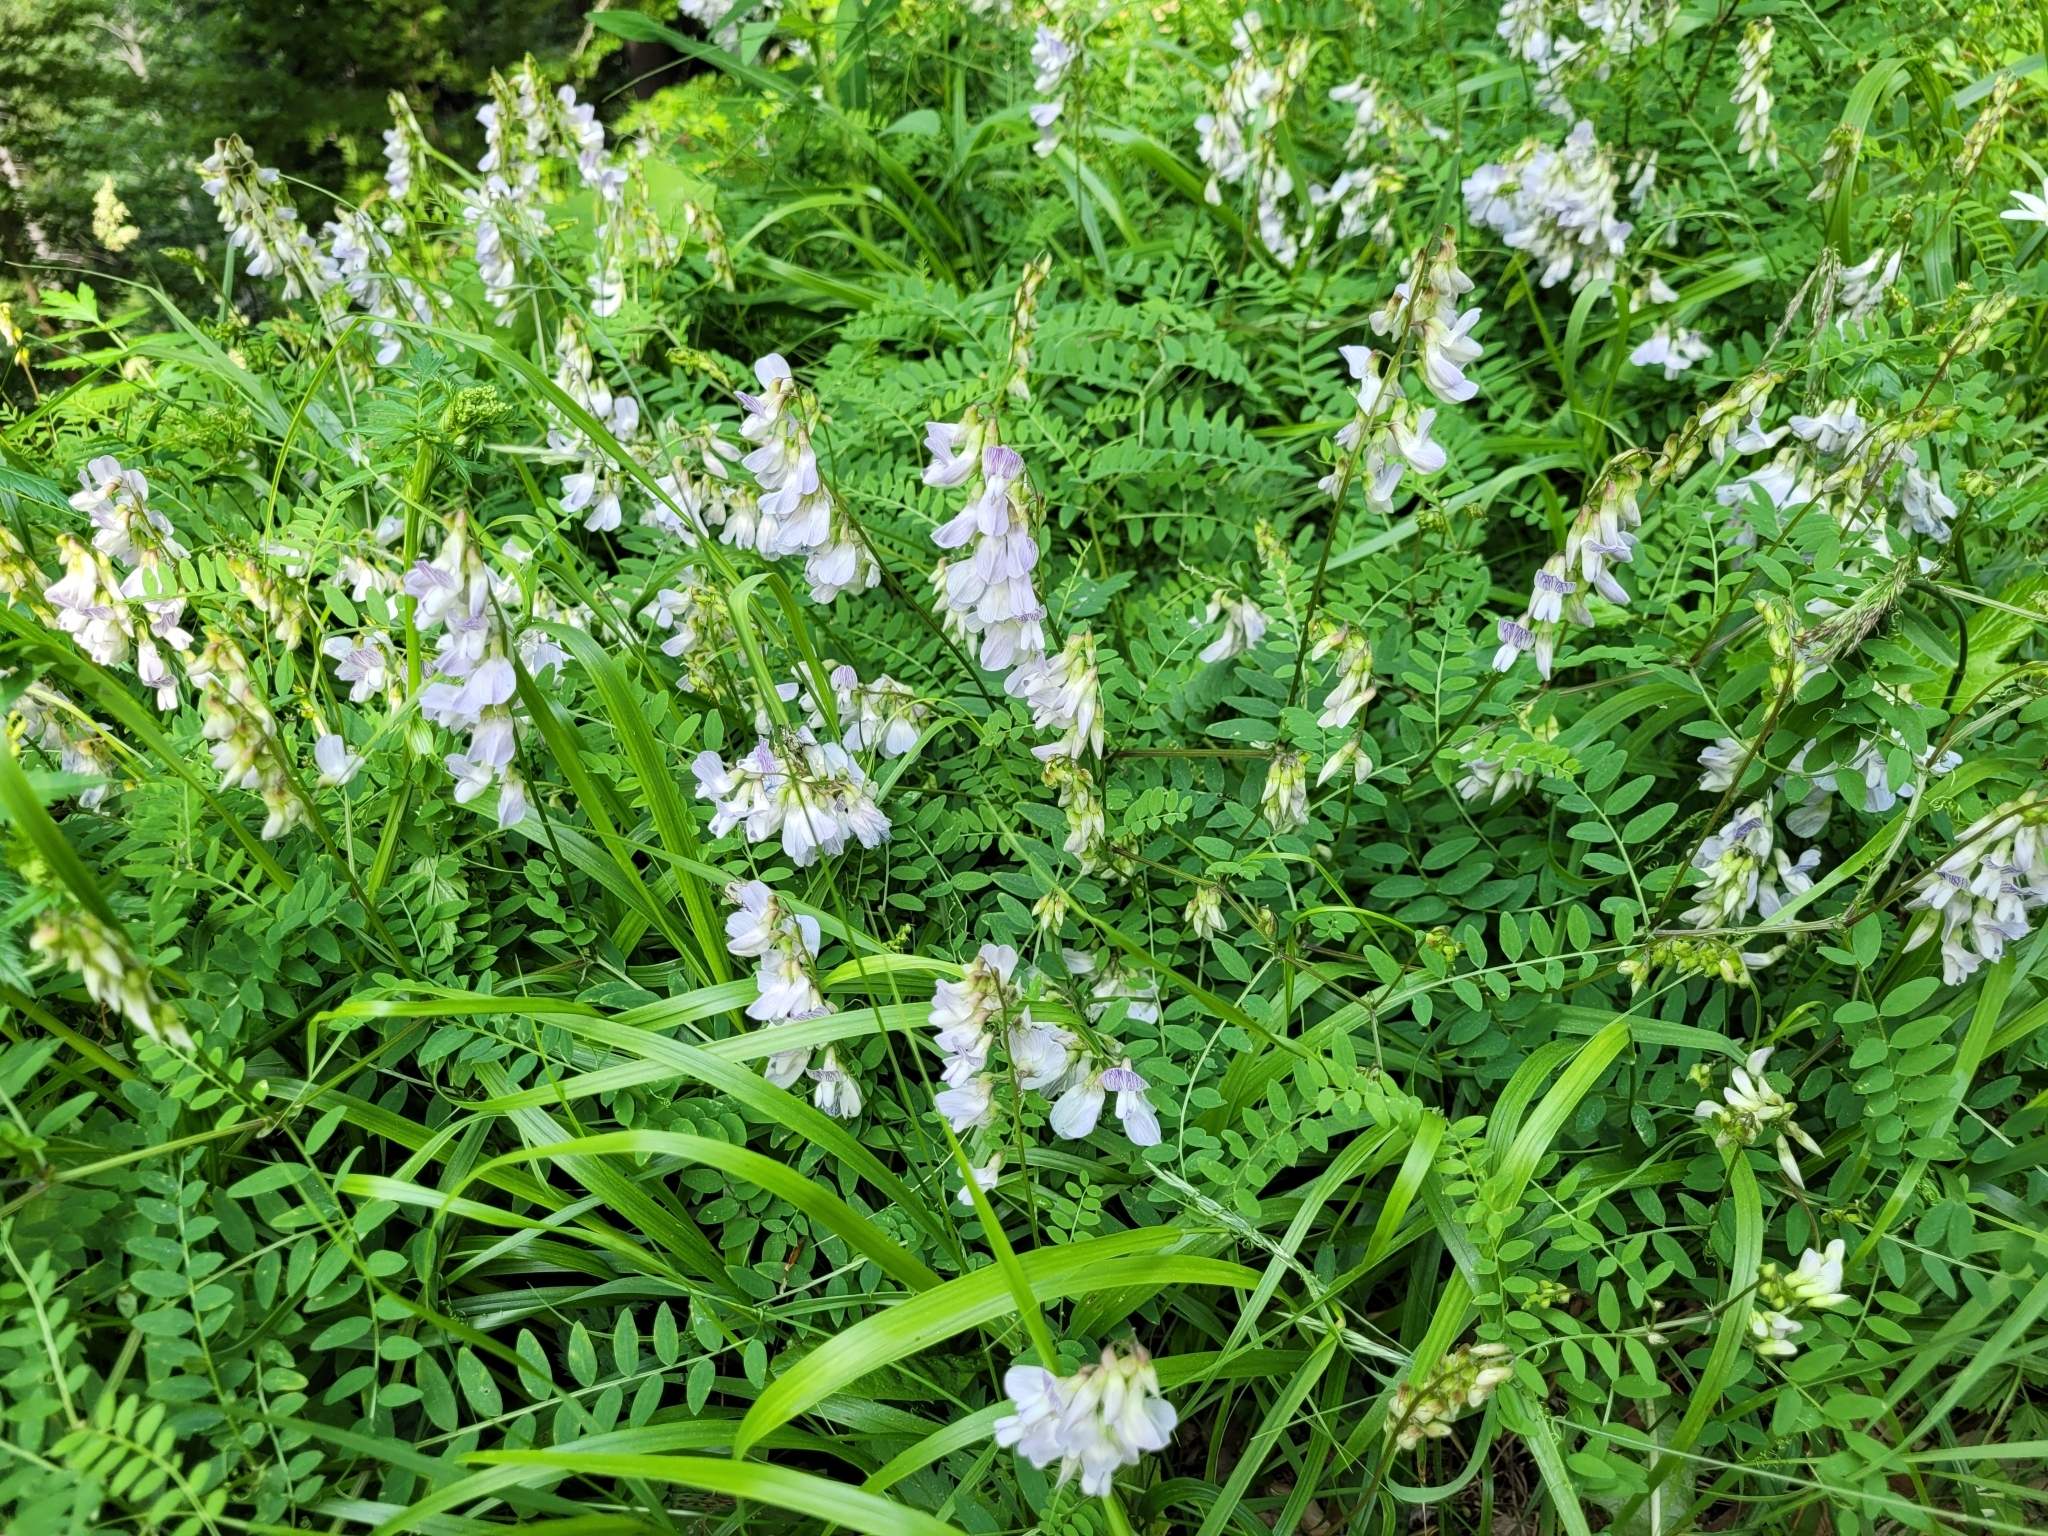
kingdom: Plantae
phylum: Tracheophyta
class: Magnoliopsida
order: Fabales
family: Fabaceae
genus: Vicia
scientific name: Vicia sylvatica
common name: Wood vetch
